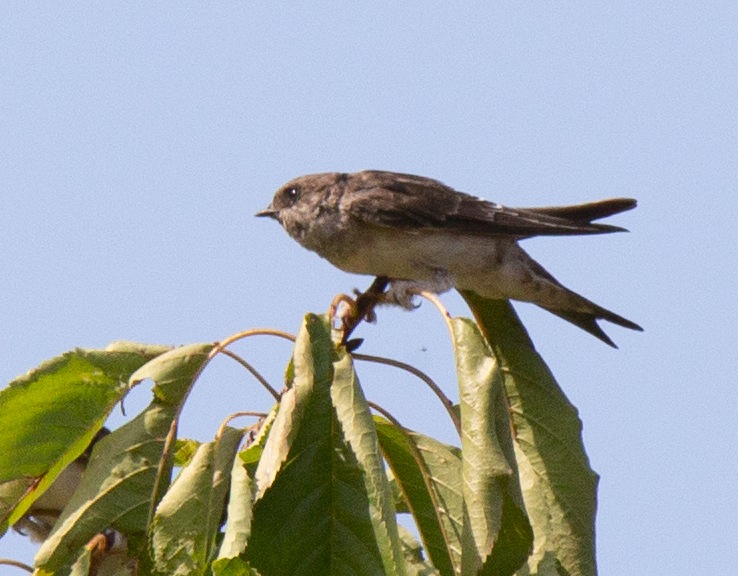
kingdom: Animalia
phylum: Chordata
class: Aves
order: Passeriformes
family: Hirundinidae
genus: Delichon
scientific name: Delichon urbicum
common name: Common house martin
